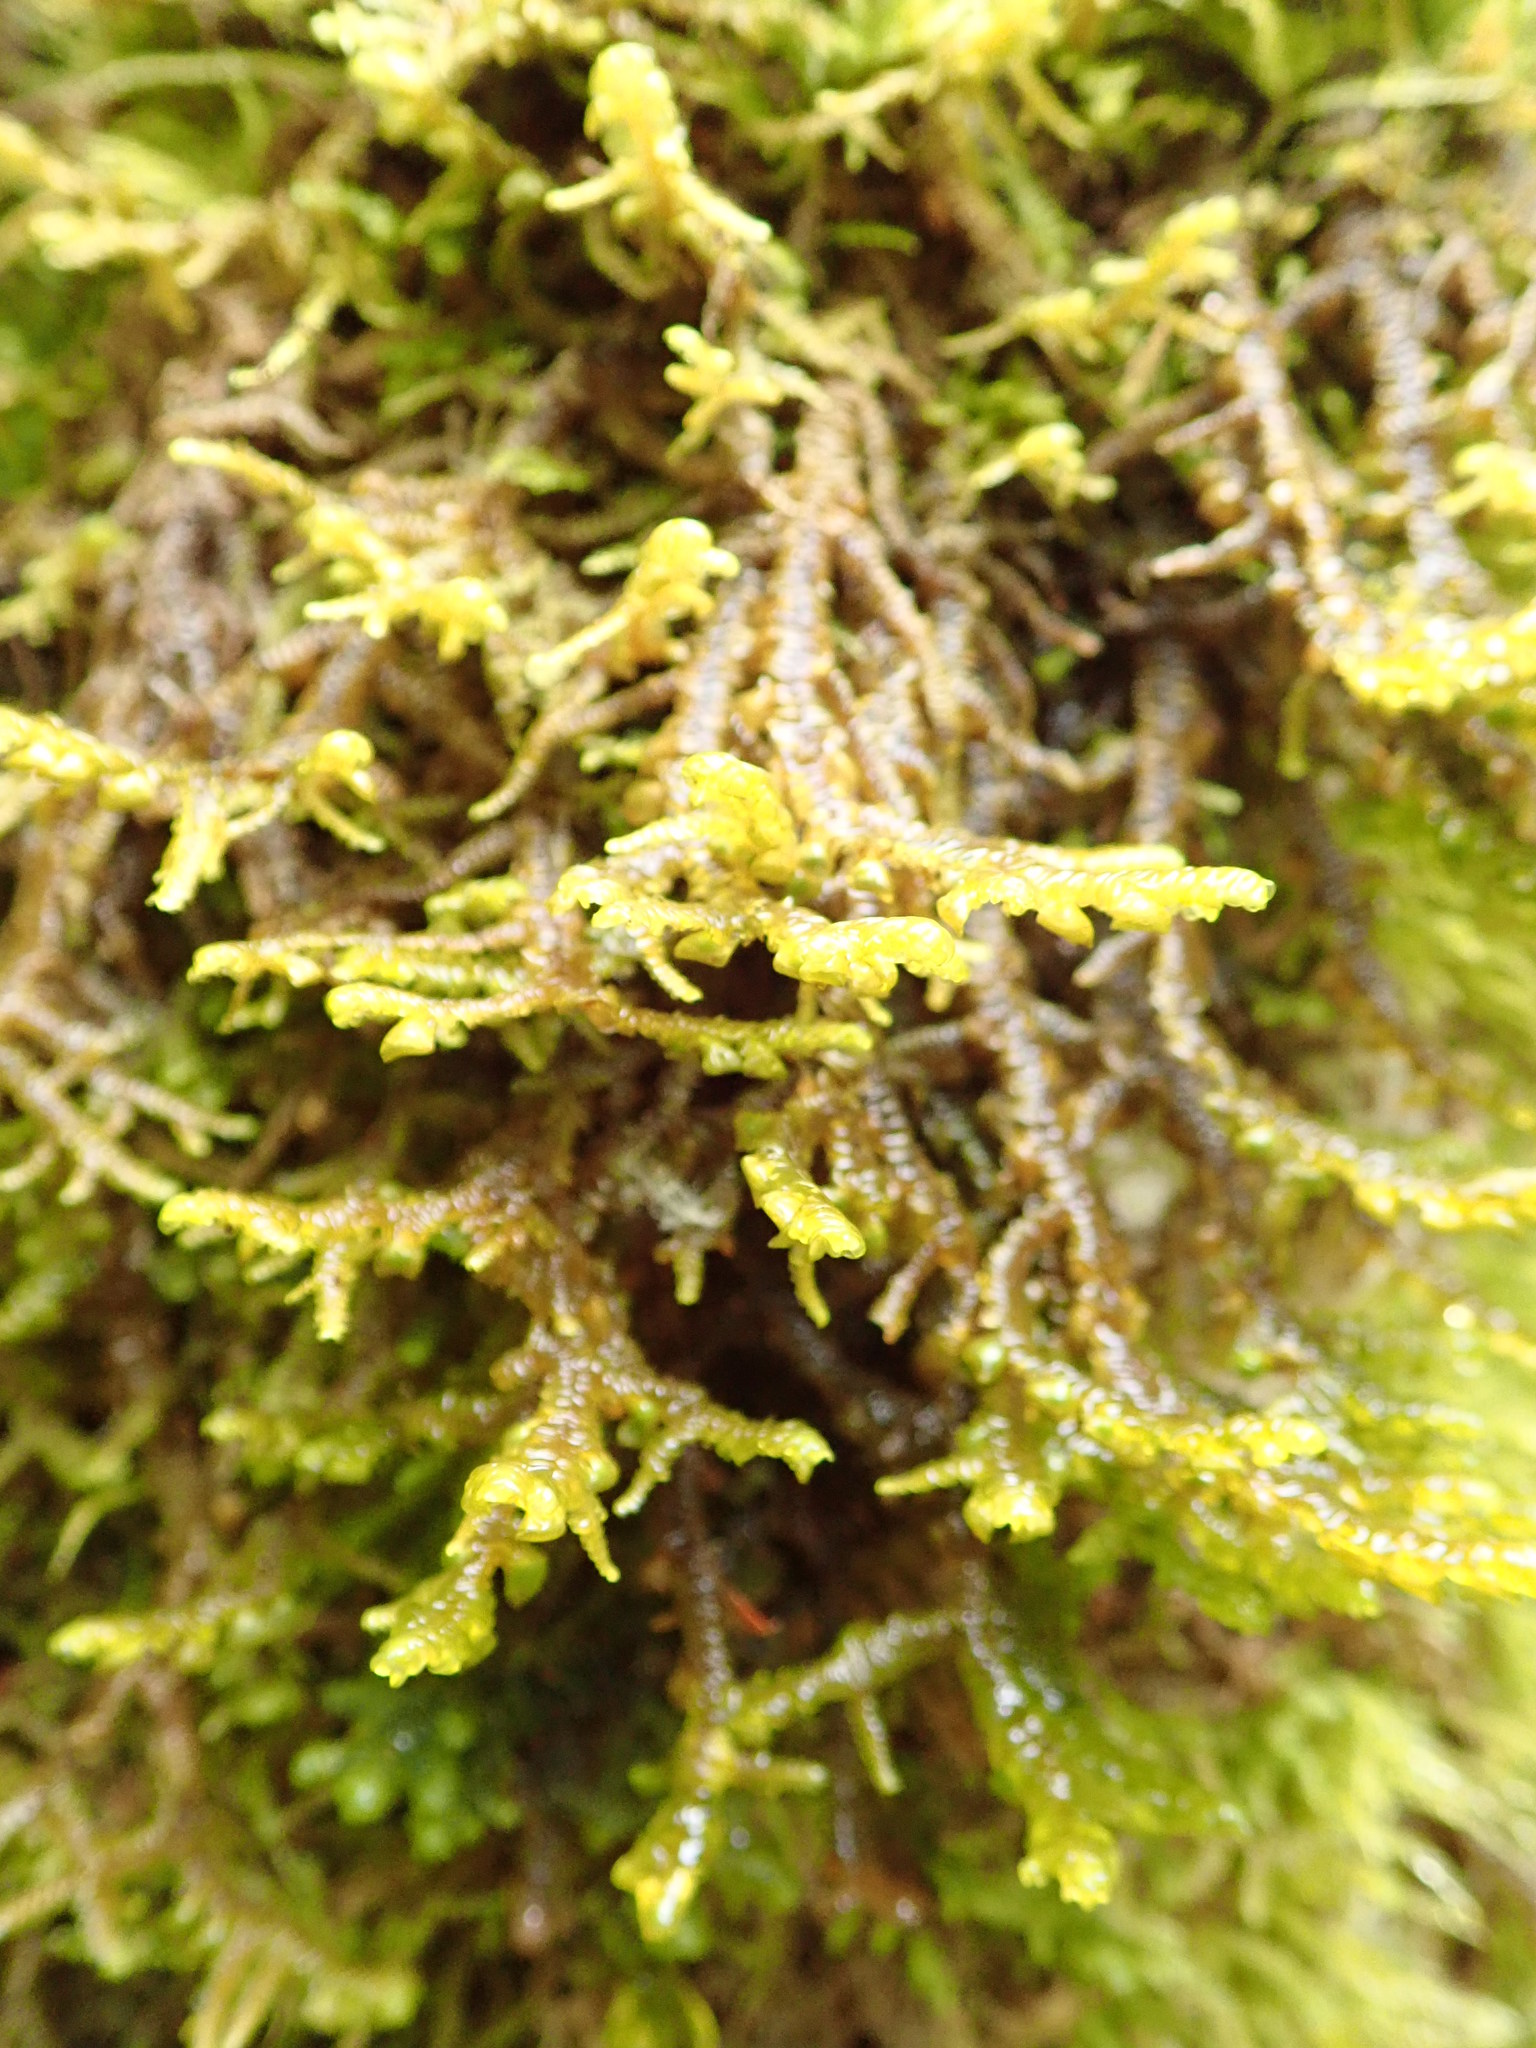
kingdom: Plantae
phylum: Marchantiophyta
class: Jungermanniopsida
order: Porellales
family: Porellaceae
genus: Porella
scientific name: Porella navicularis
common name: Tree ruffle liverwort
